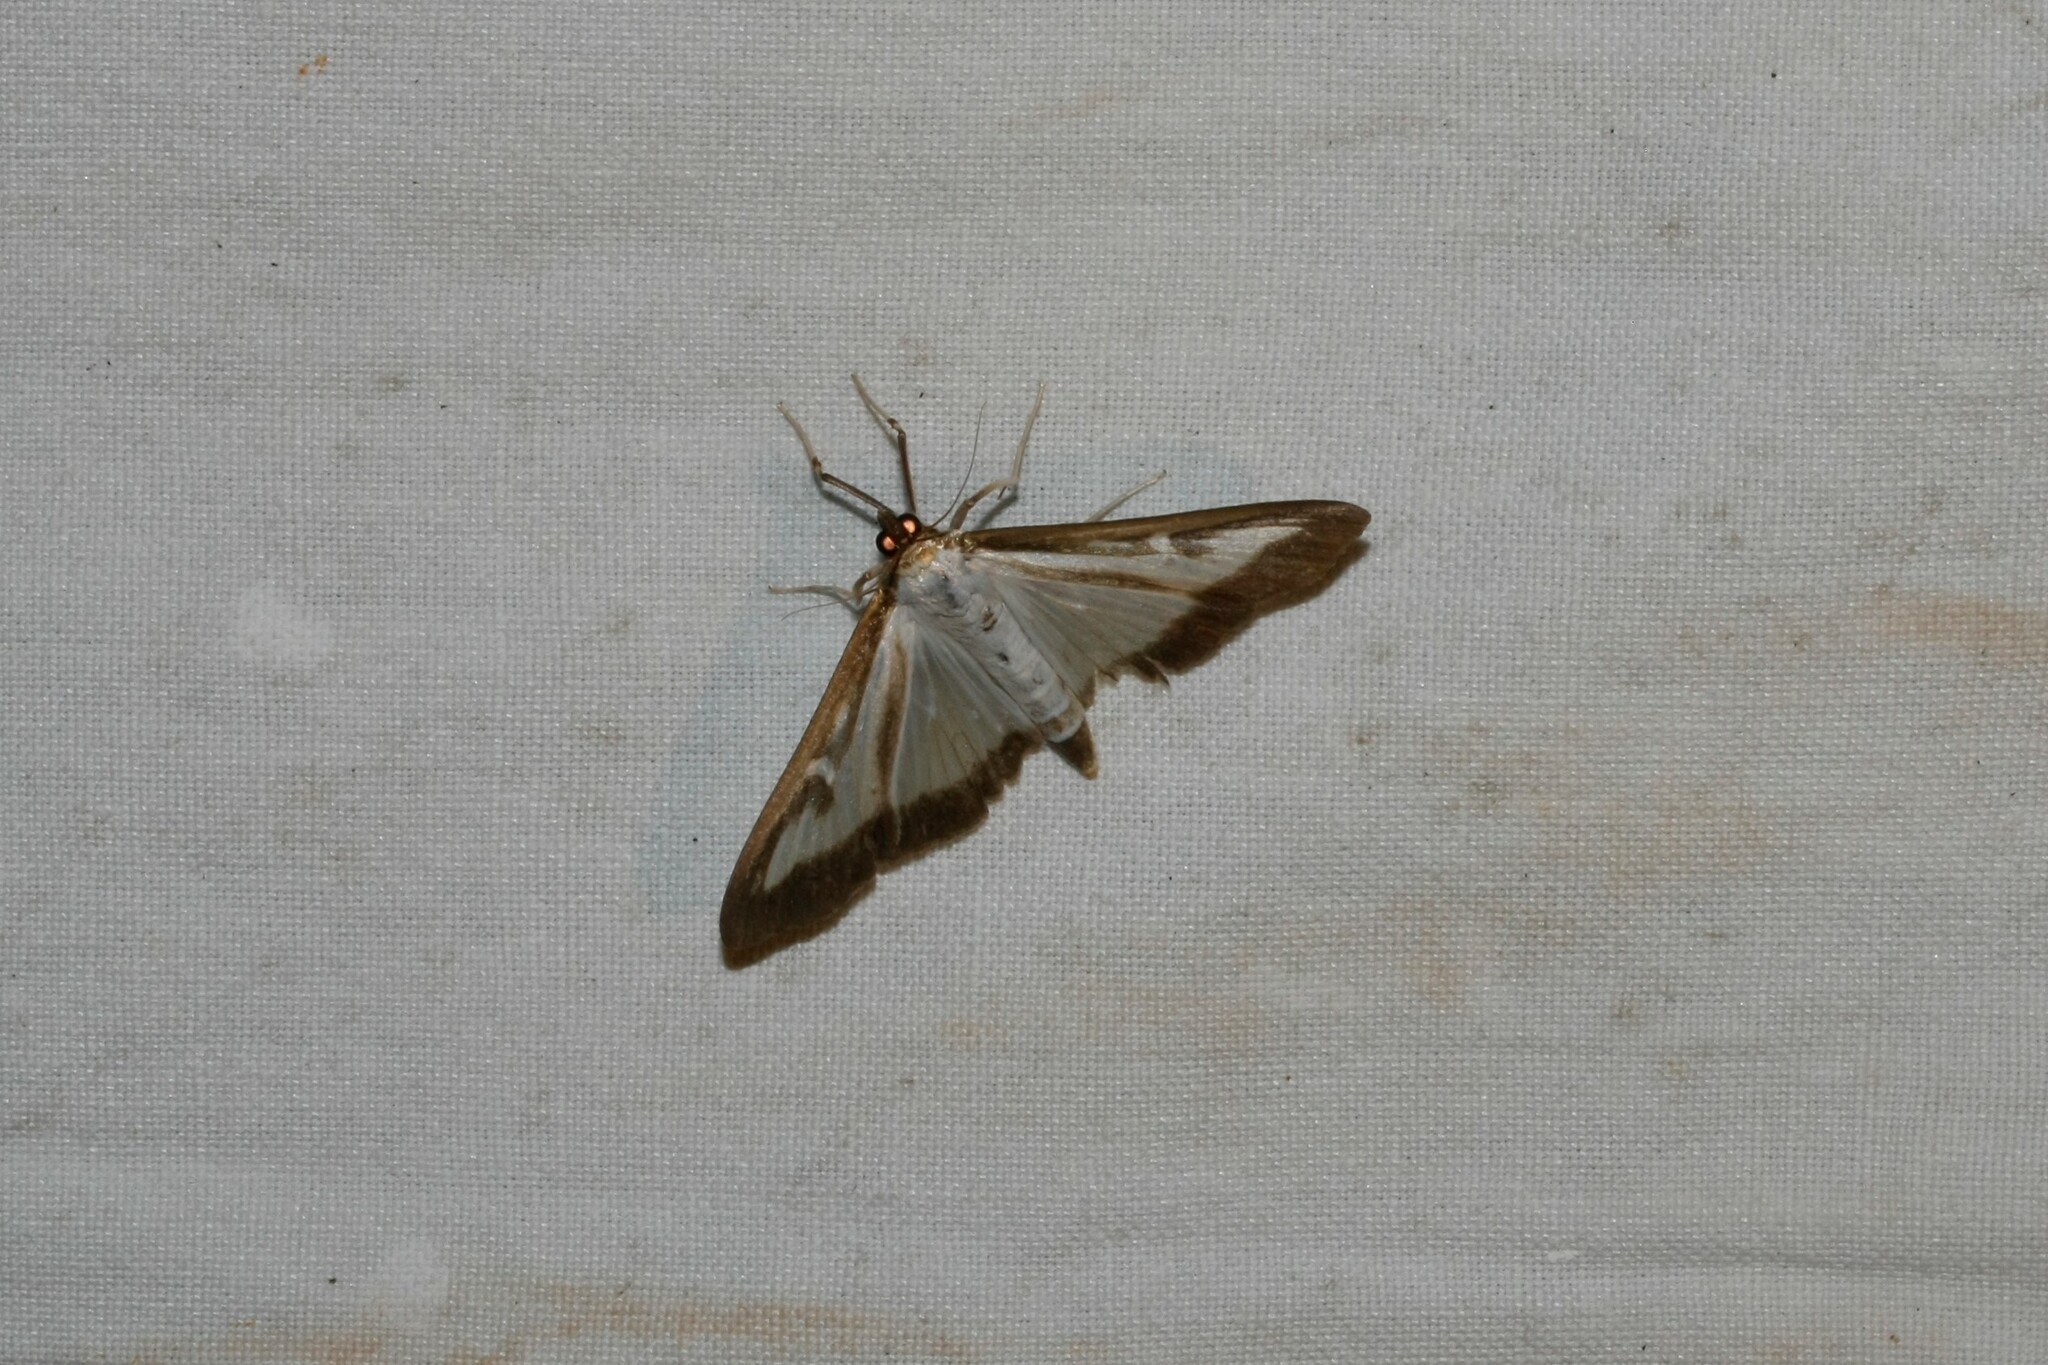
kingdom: Animalia
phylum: Arthropoda
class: Insecta
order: Lepidoptera
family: Crambidae
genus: Cydalima
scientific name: Cydalima perspectalis
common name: Box tree moth
